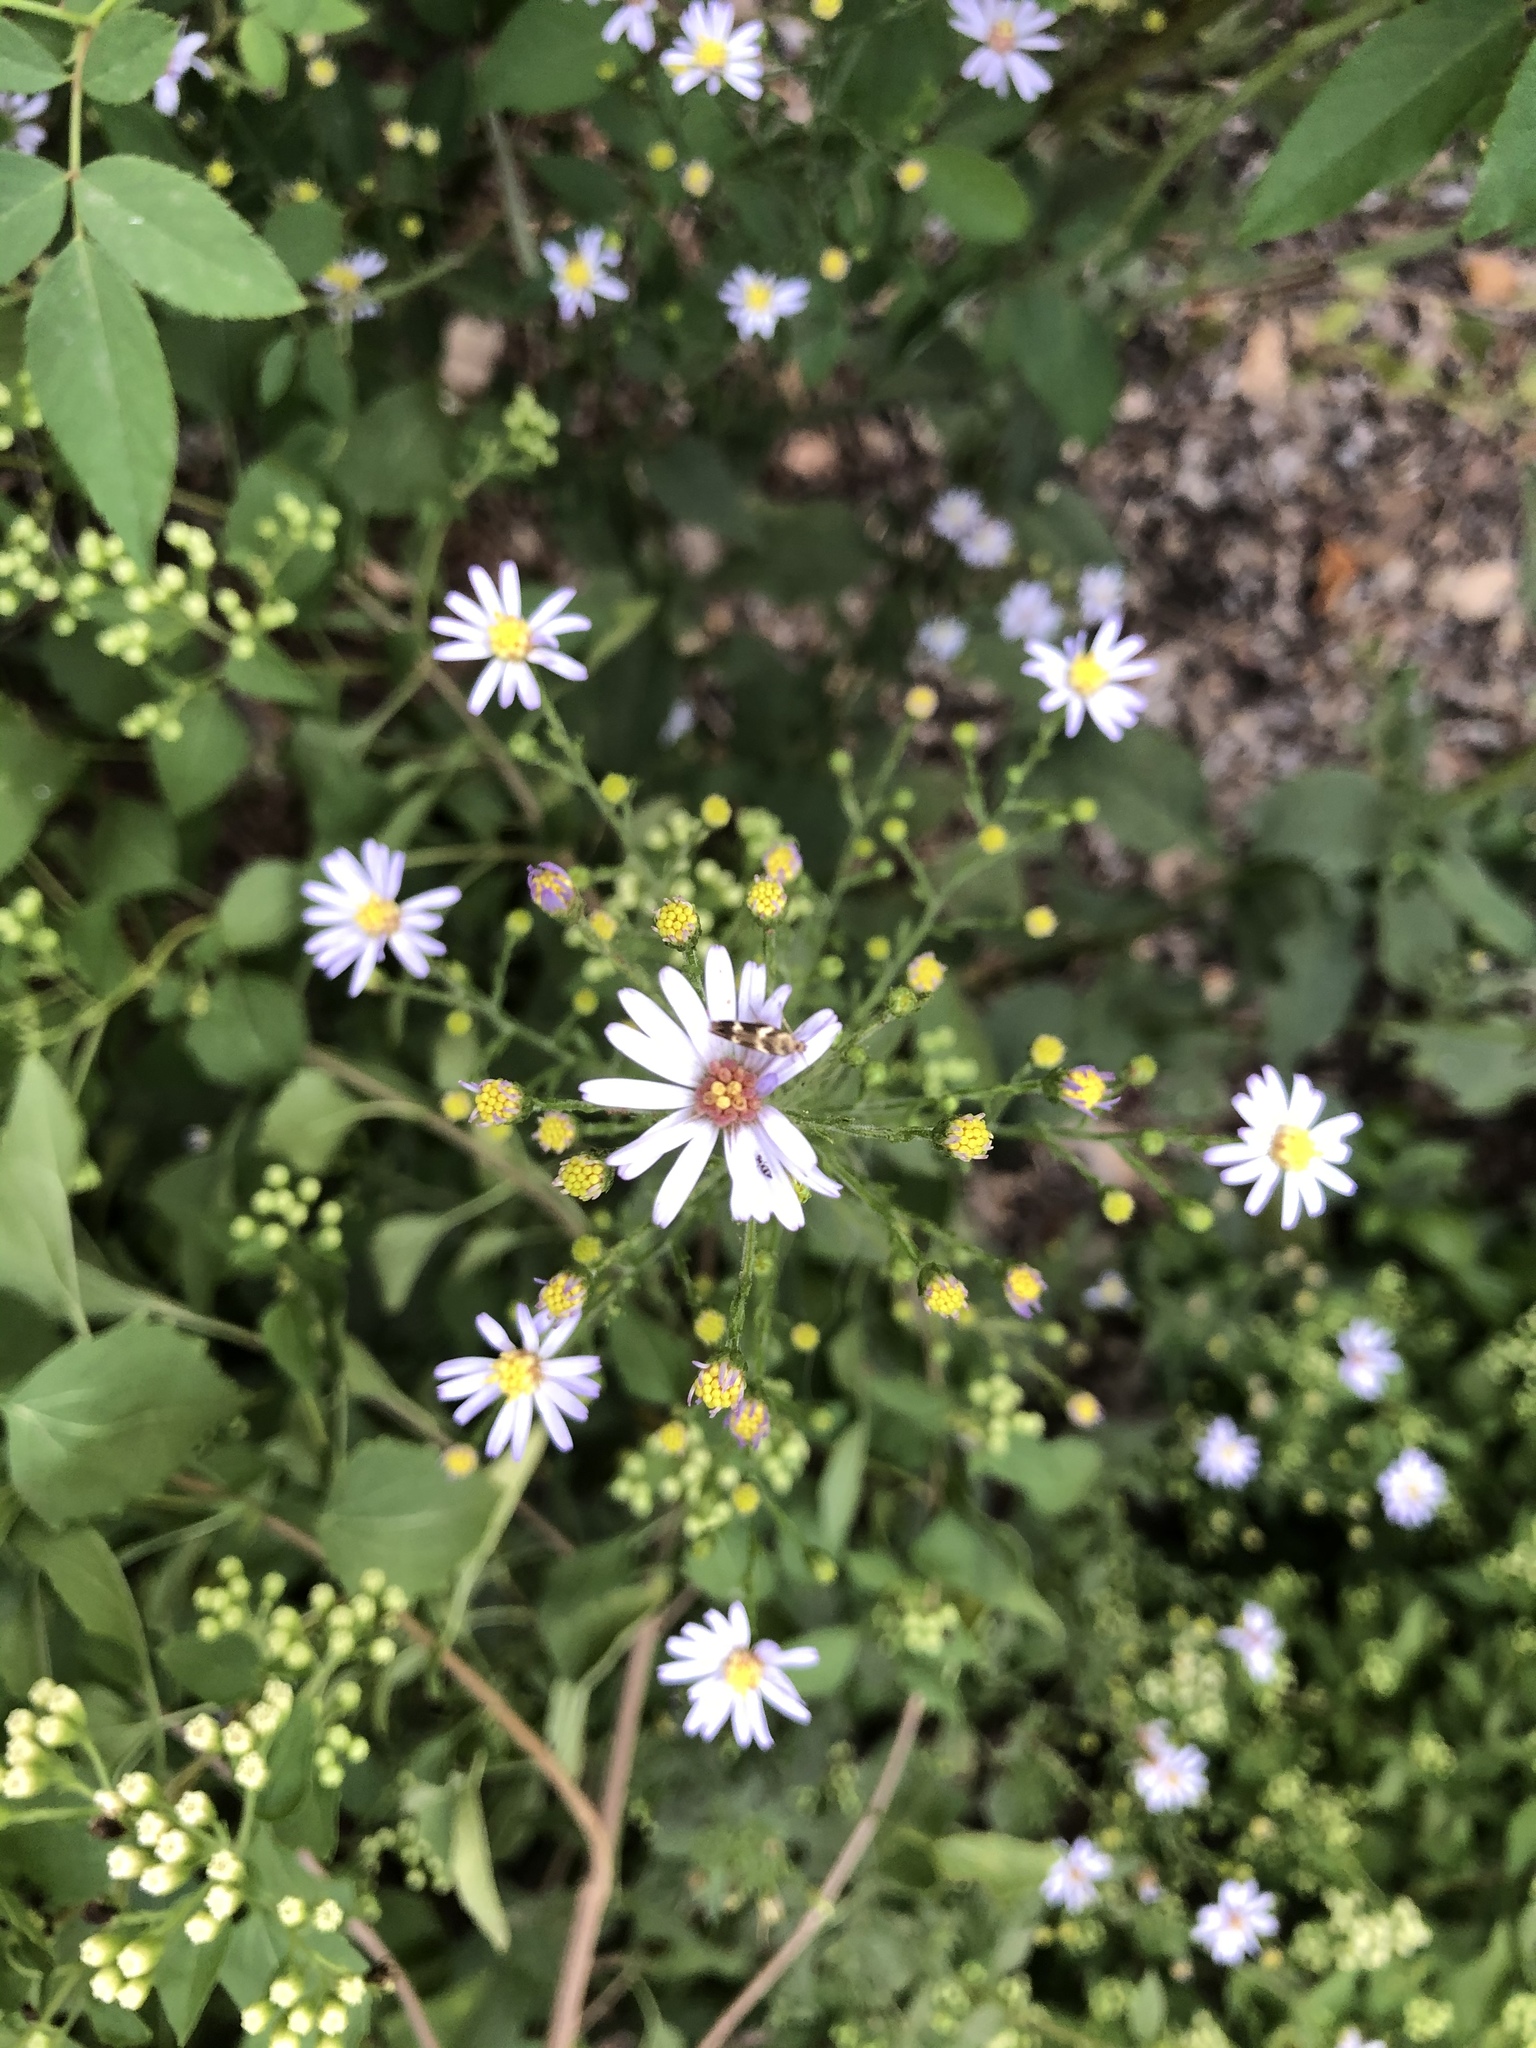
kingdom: Plantae
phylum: Tracheophyta
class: Magnoliopsida
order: Asterales
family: Asteraceae
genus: Symphyotrichum
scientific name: Symphyotrichum drummondii
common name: Drummond's aster
